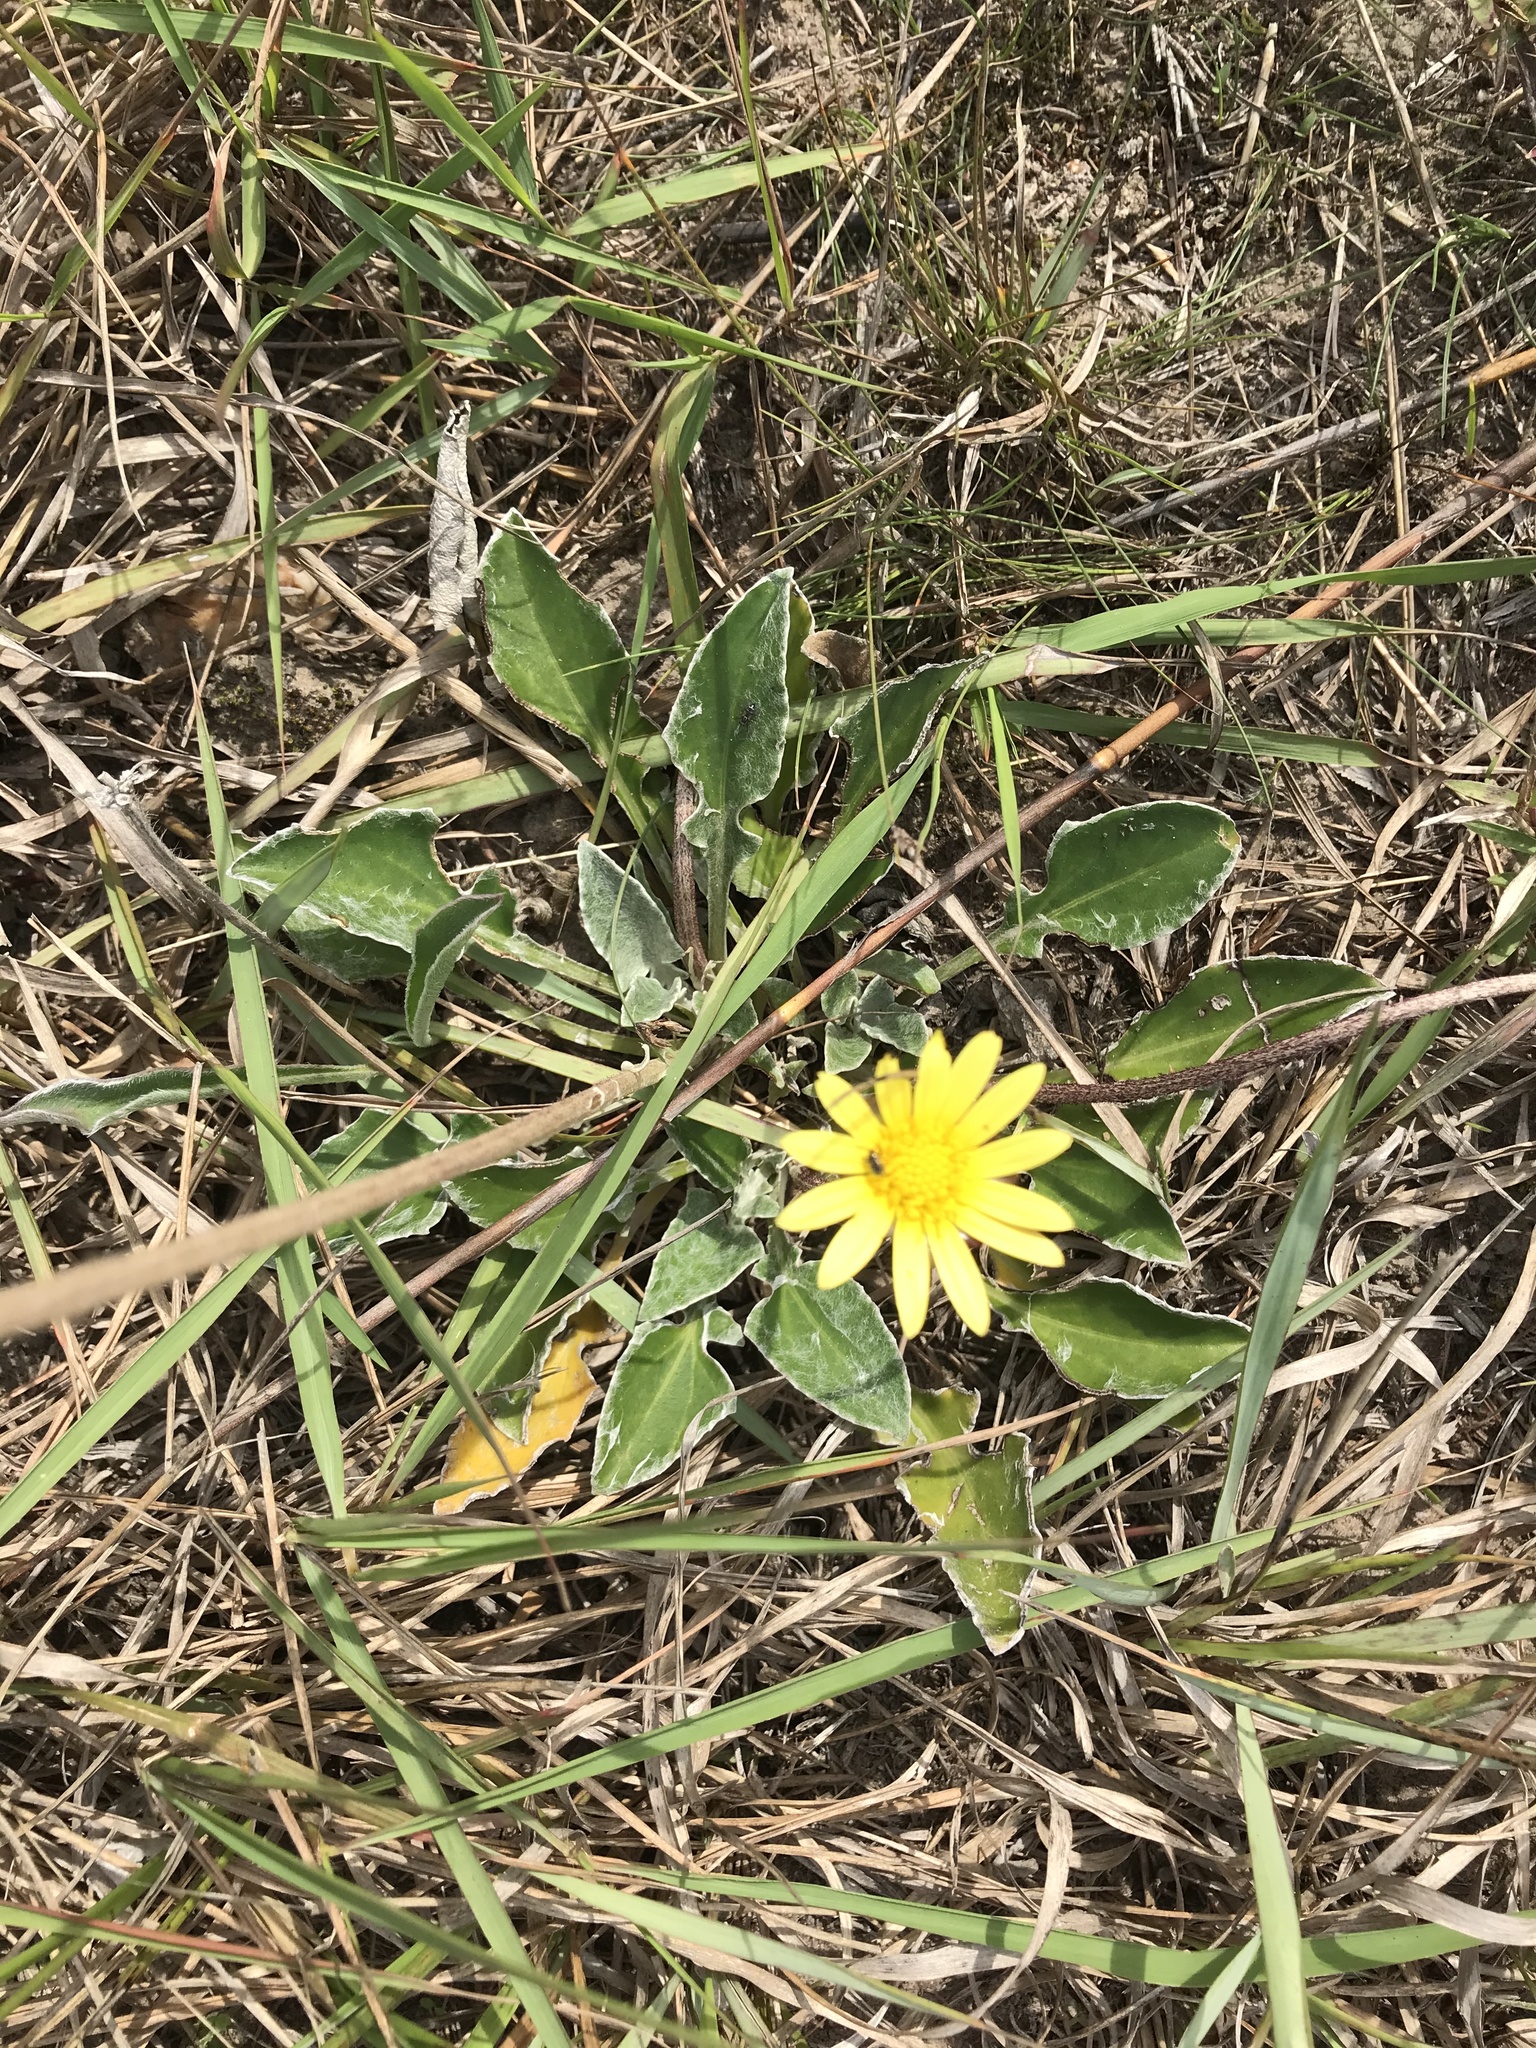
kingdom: Plantae
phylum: Tracheophyta
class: Magnoliopsida
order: Asterales
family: Asteraceae
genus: Haplocarpha
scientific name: Haplocarpha lyrata
